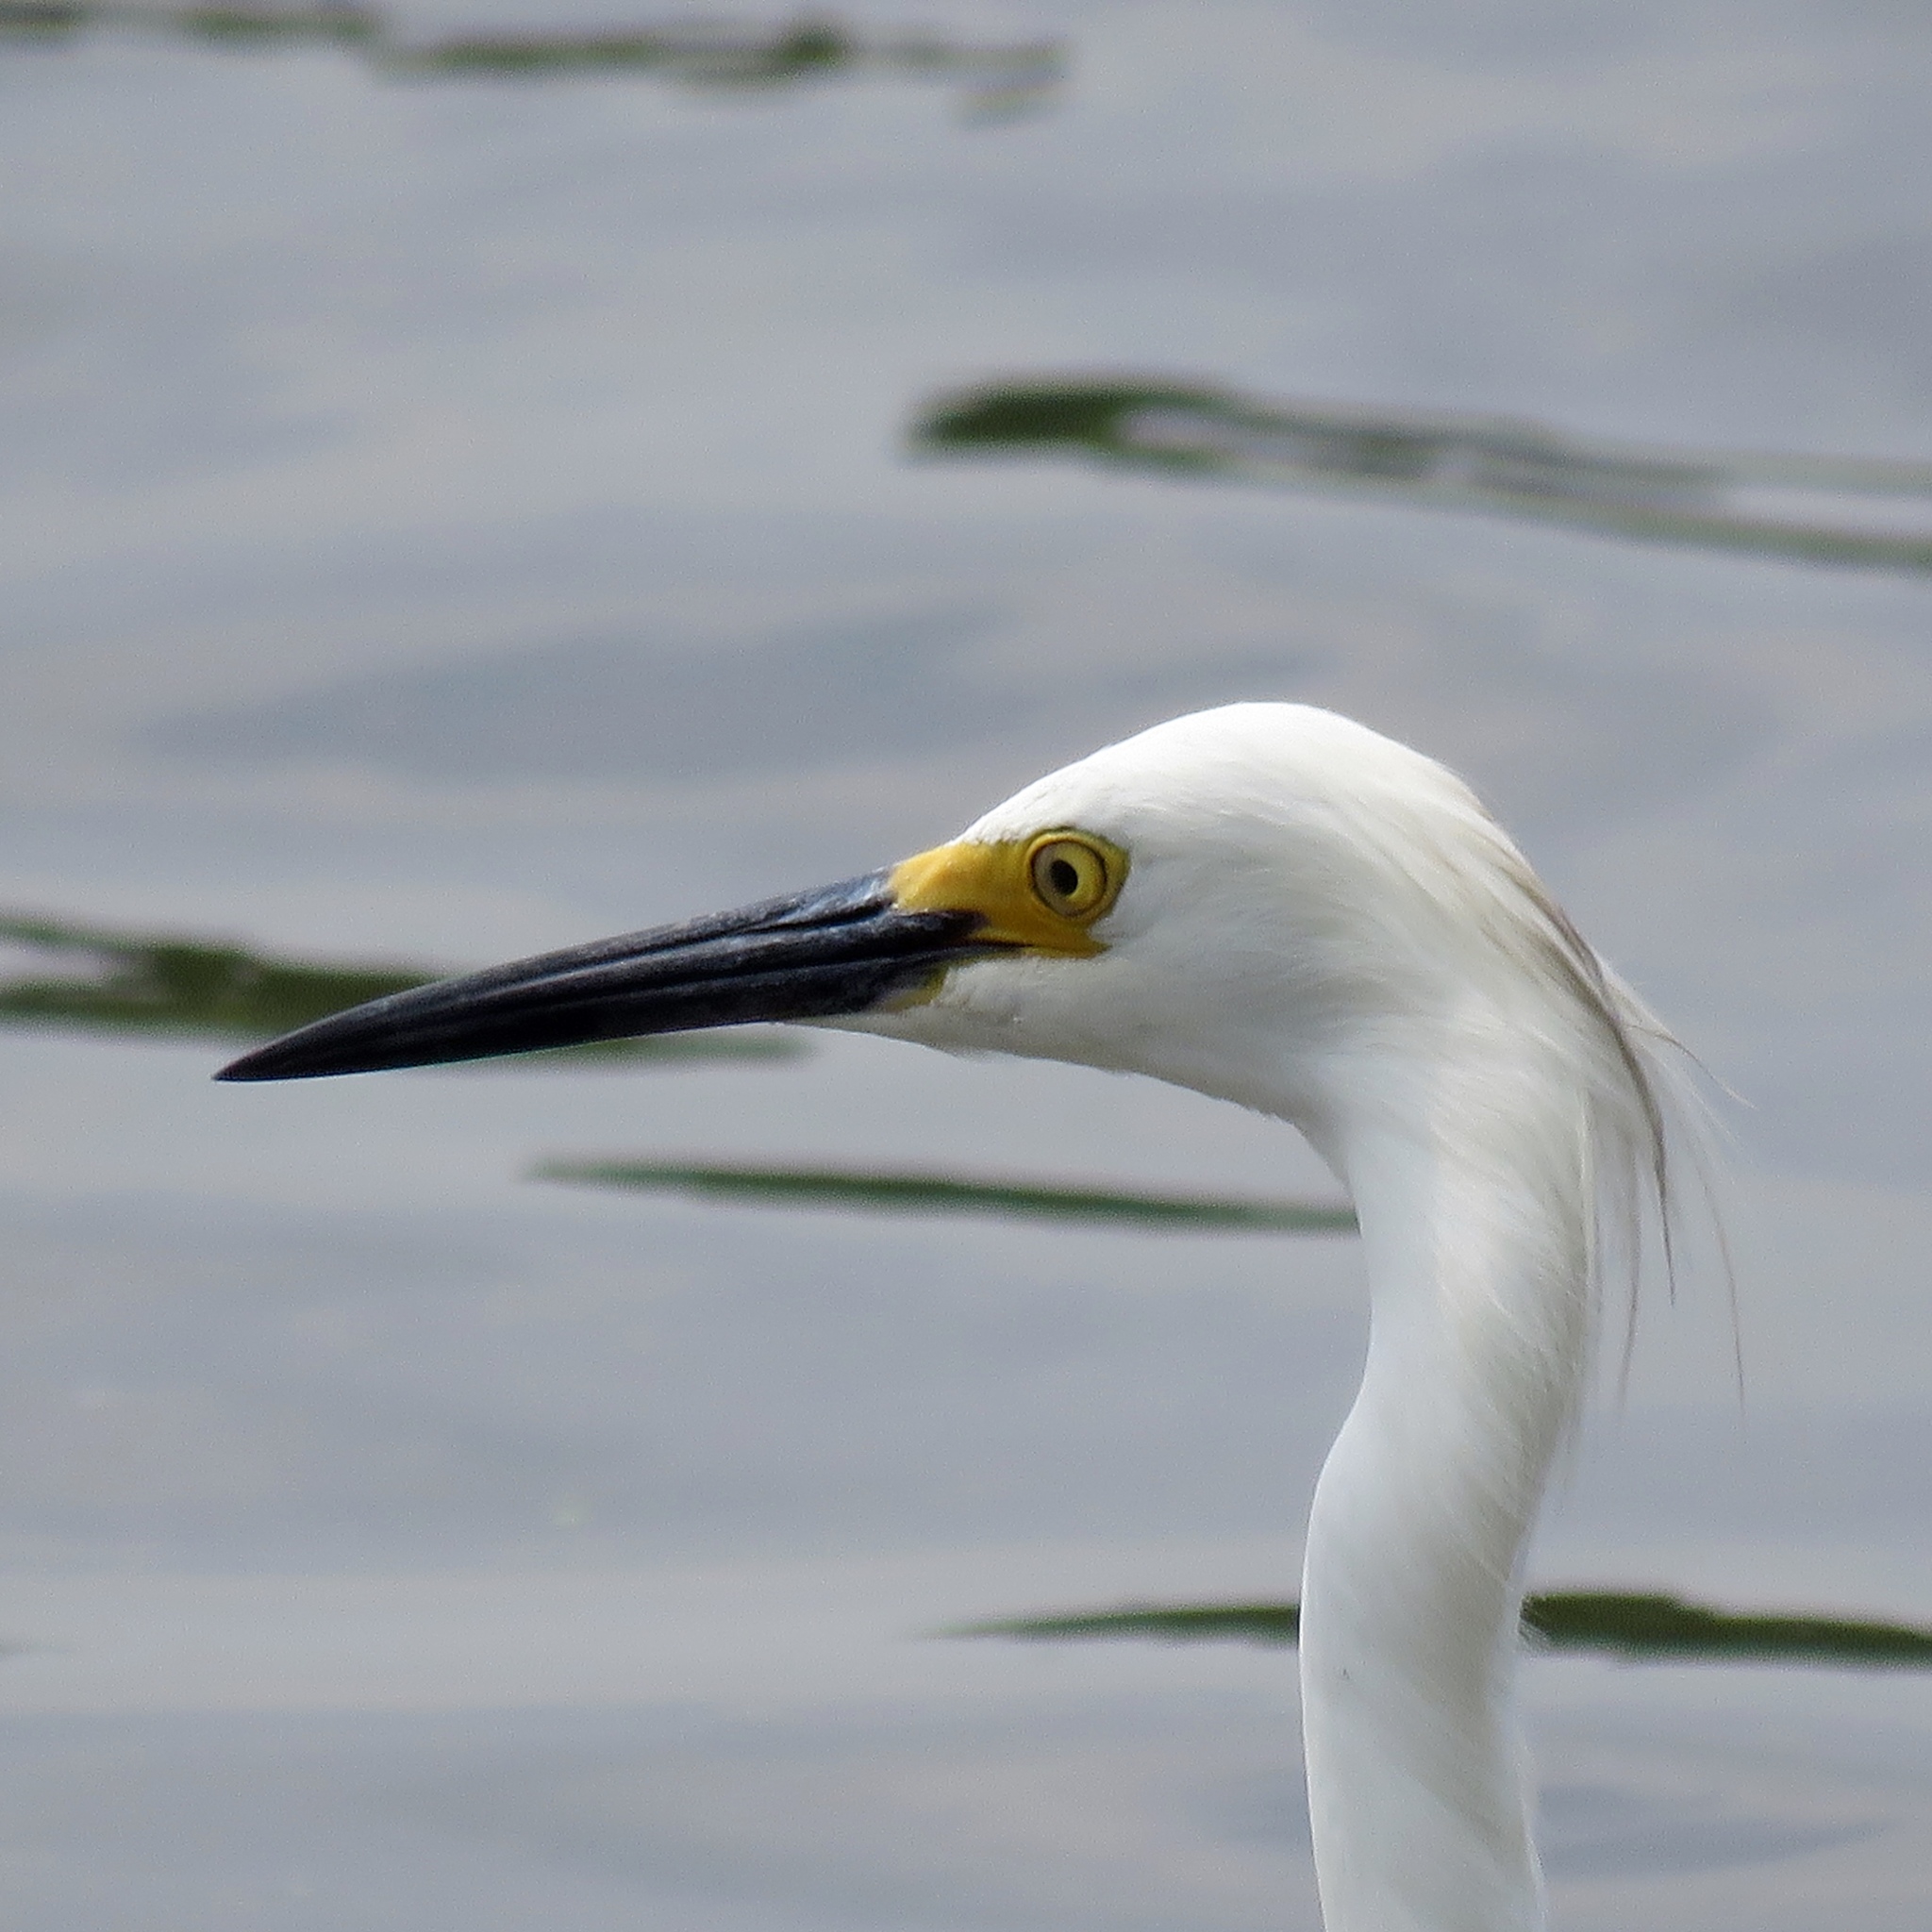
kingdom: Animalia
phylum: Chordata
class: Aves
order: Pelecaniformes
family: Ardeidae
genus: Egretta
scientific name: Egretta thula
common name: Snowy egret
